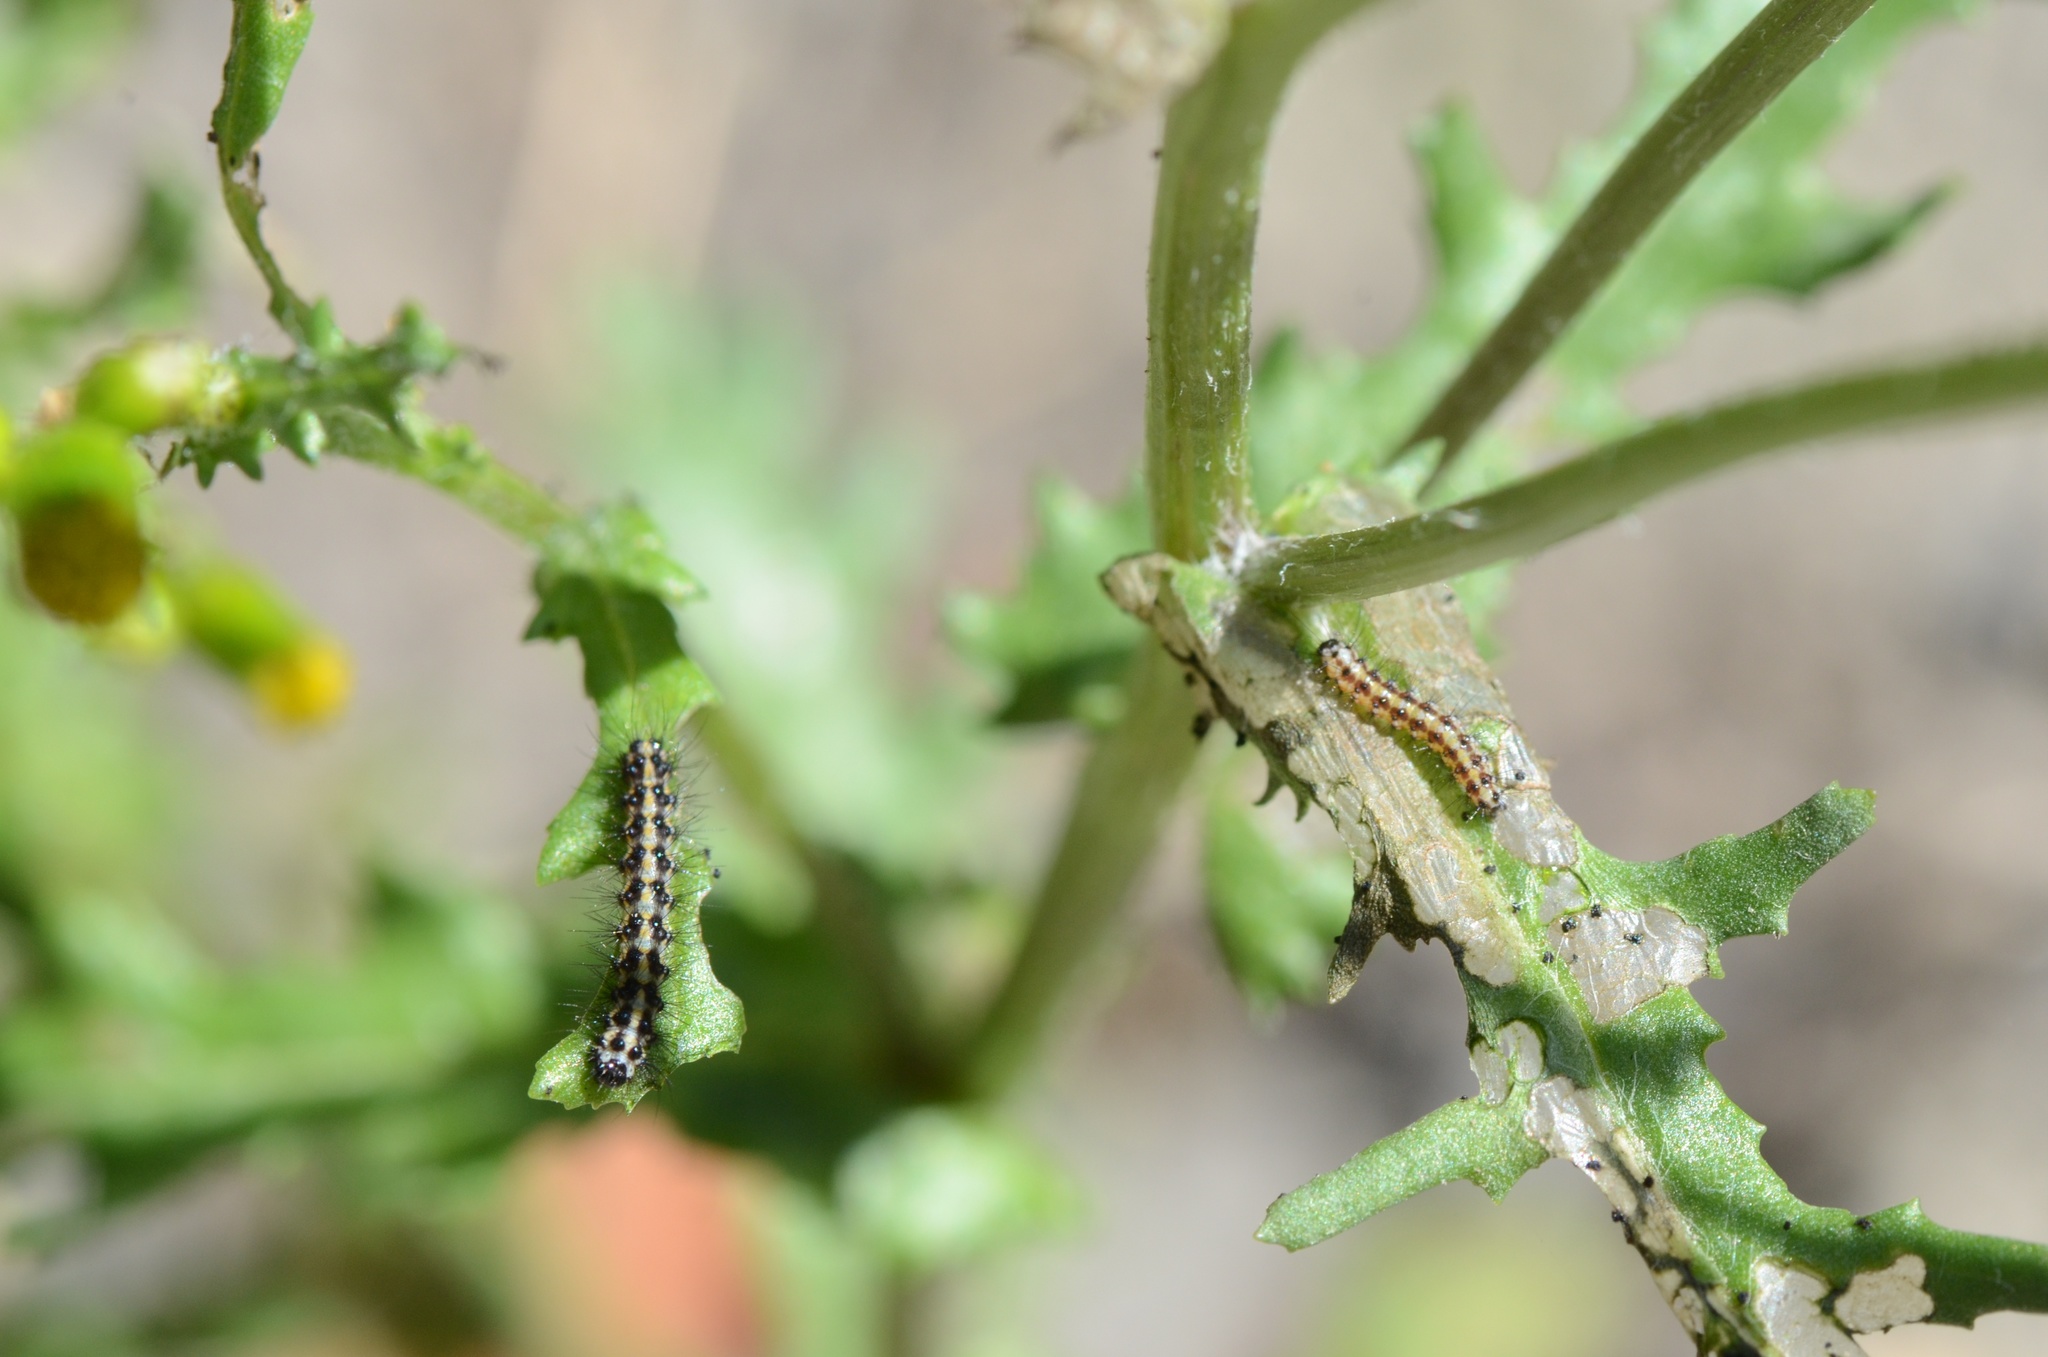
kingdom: Animalia
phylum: Arthropoda
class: Insecta
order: Lepidoptera
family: Erebidae
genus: Nyctemera
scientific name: Nyctemera annulatum
